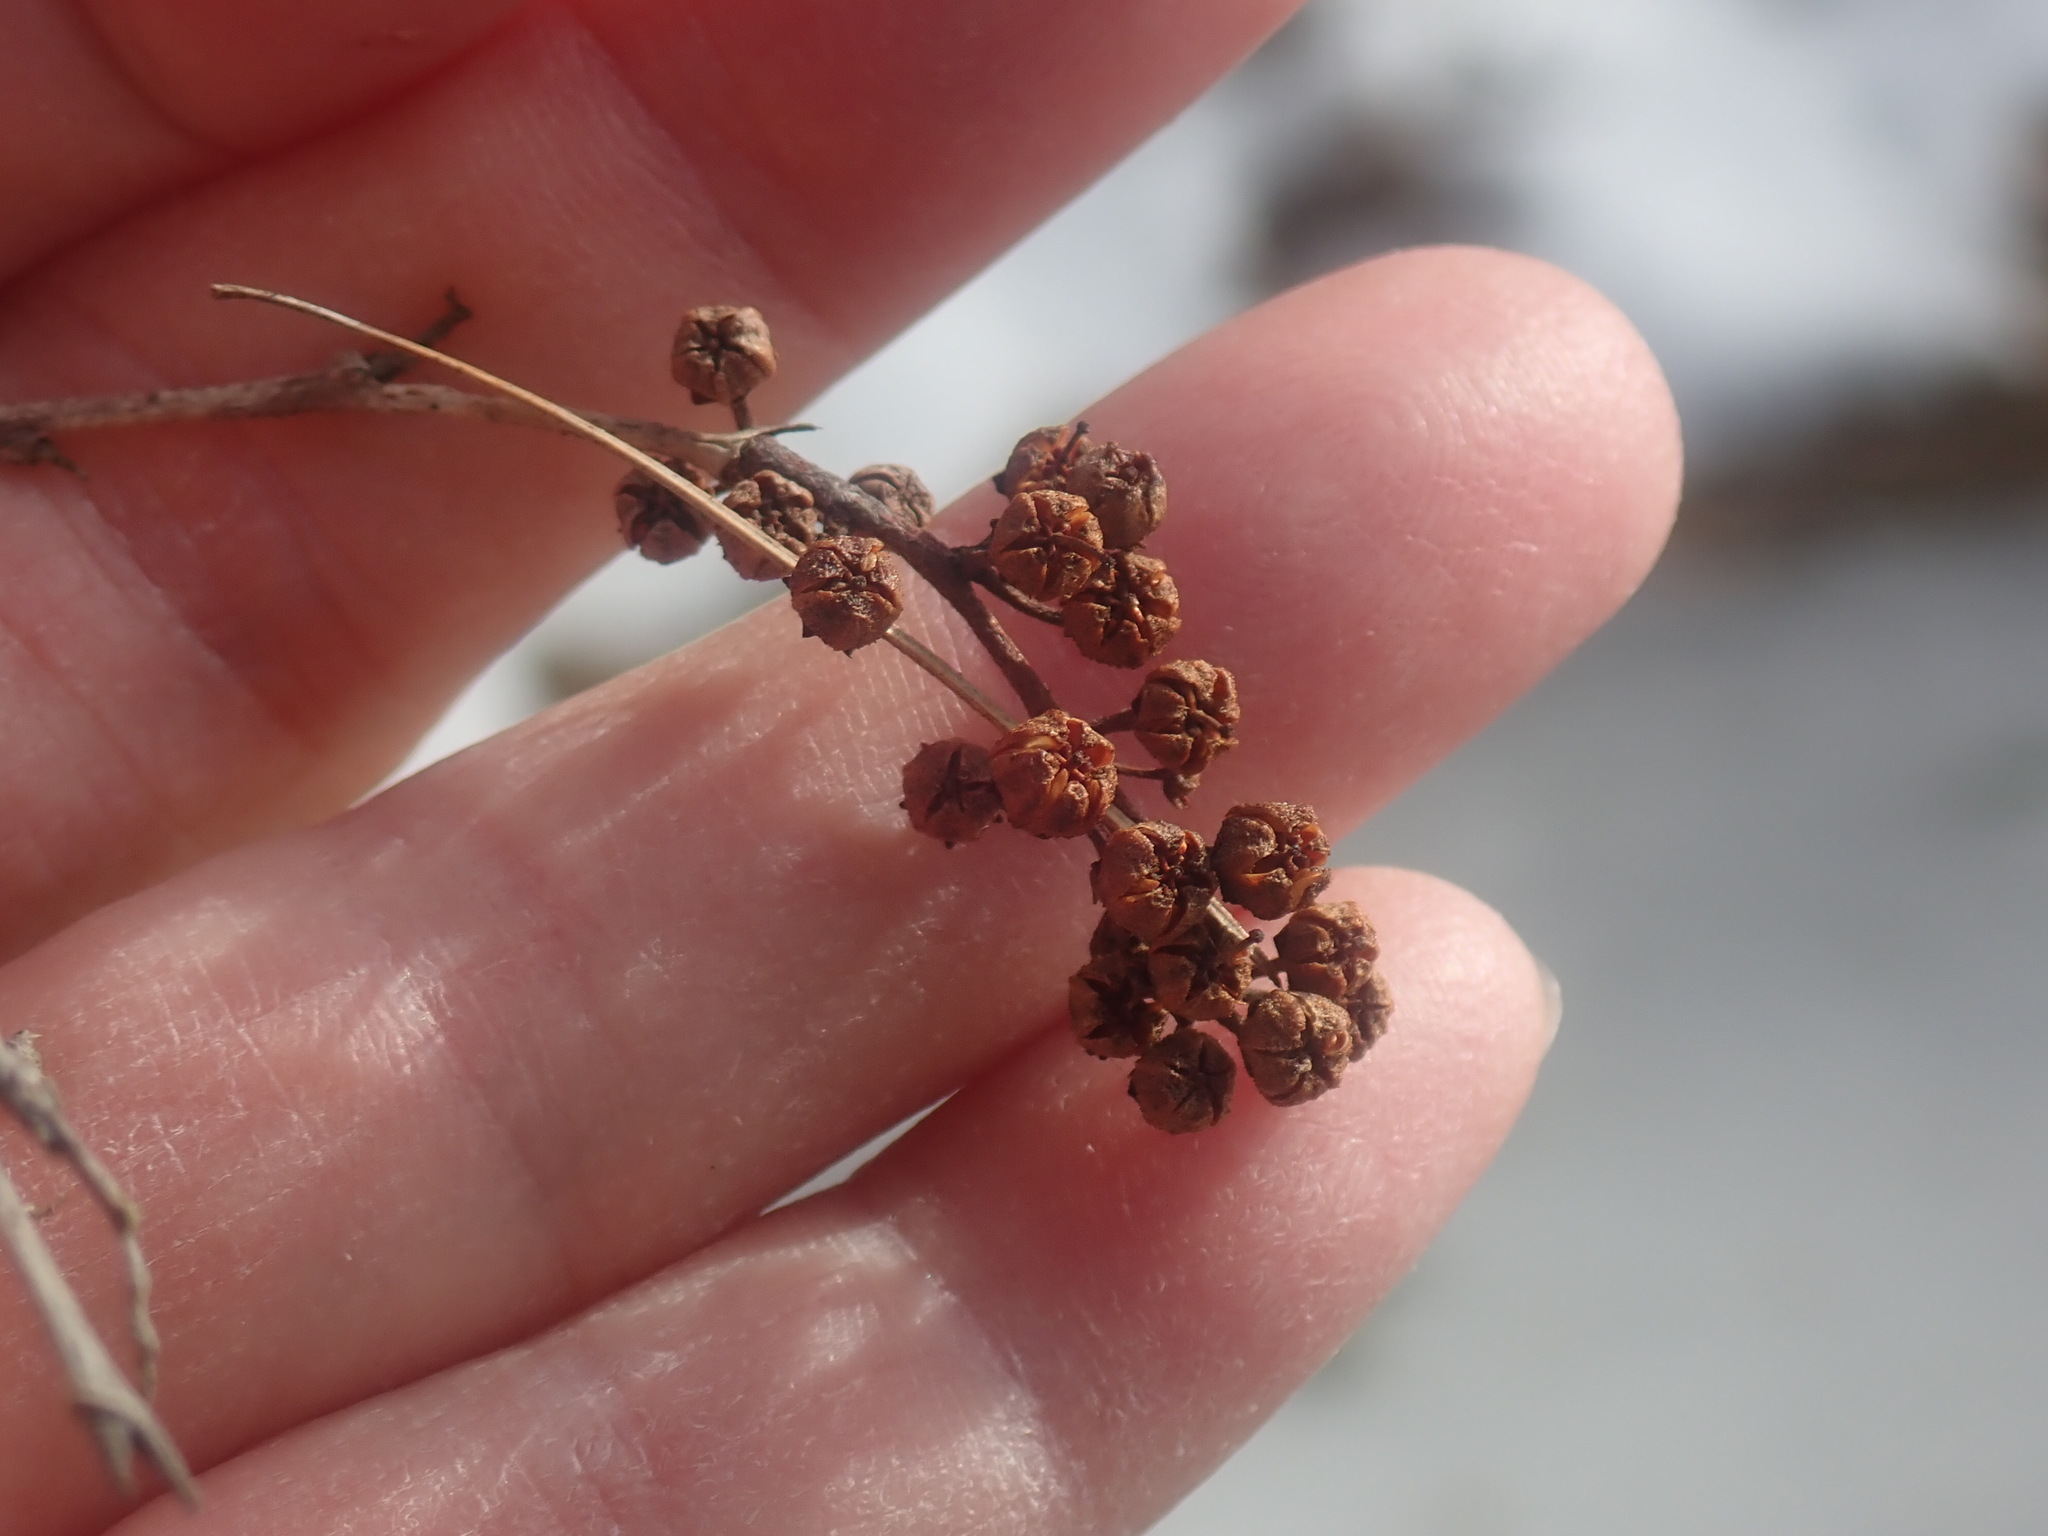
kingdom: Plantae
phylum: Tracheophyta
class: Magnoliopsida
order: Ericales
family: Ericaceae
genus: Lyonia
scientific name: Lyonia ligustrina
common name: Maleberry
